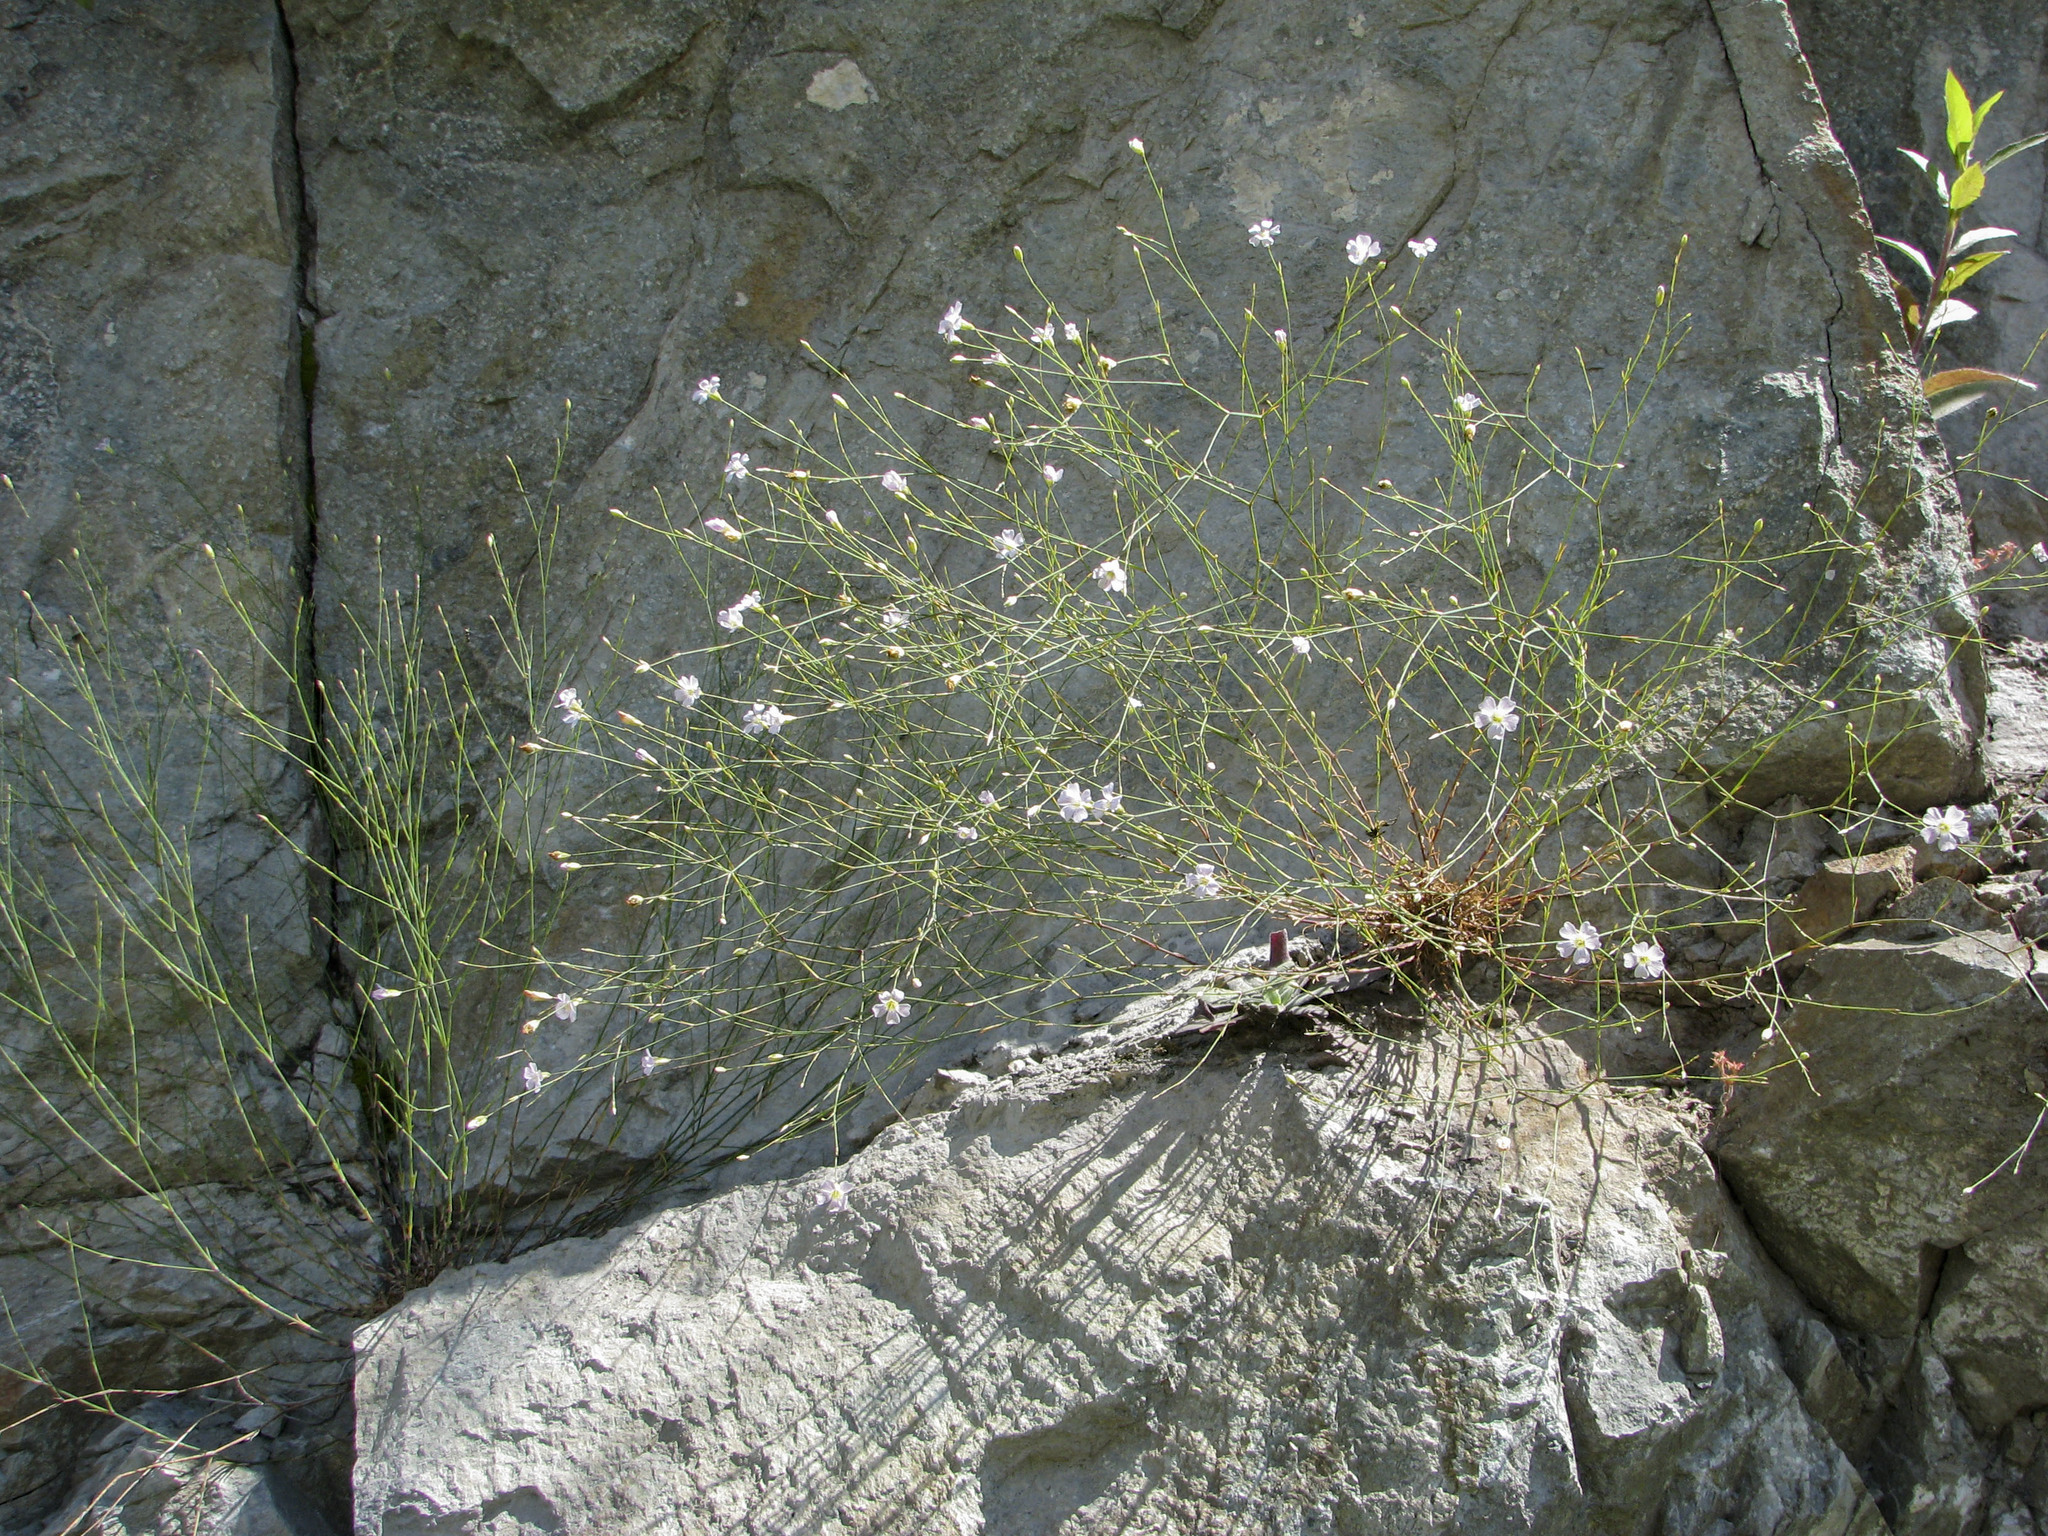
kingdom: Plantae
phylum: Tracheophyta
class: Magnoliopsida
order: Caryophyllales
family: Caryophyllaceae
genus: Petrorhagia
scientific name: Petrorhagia saxifraga
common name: Tunicflower
